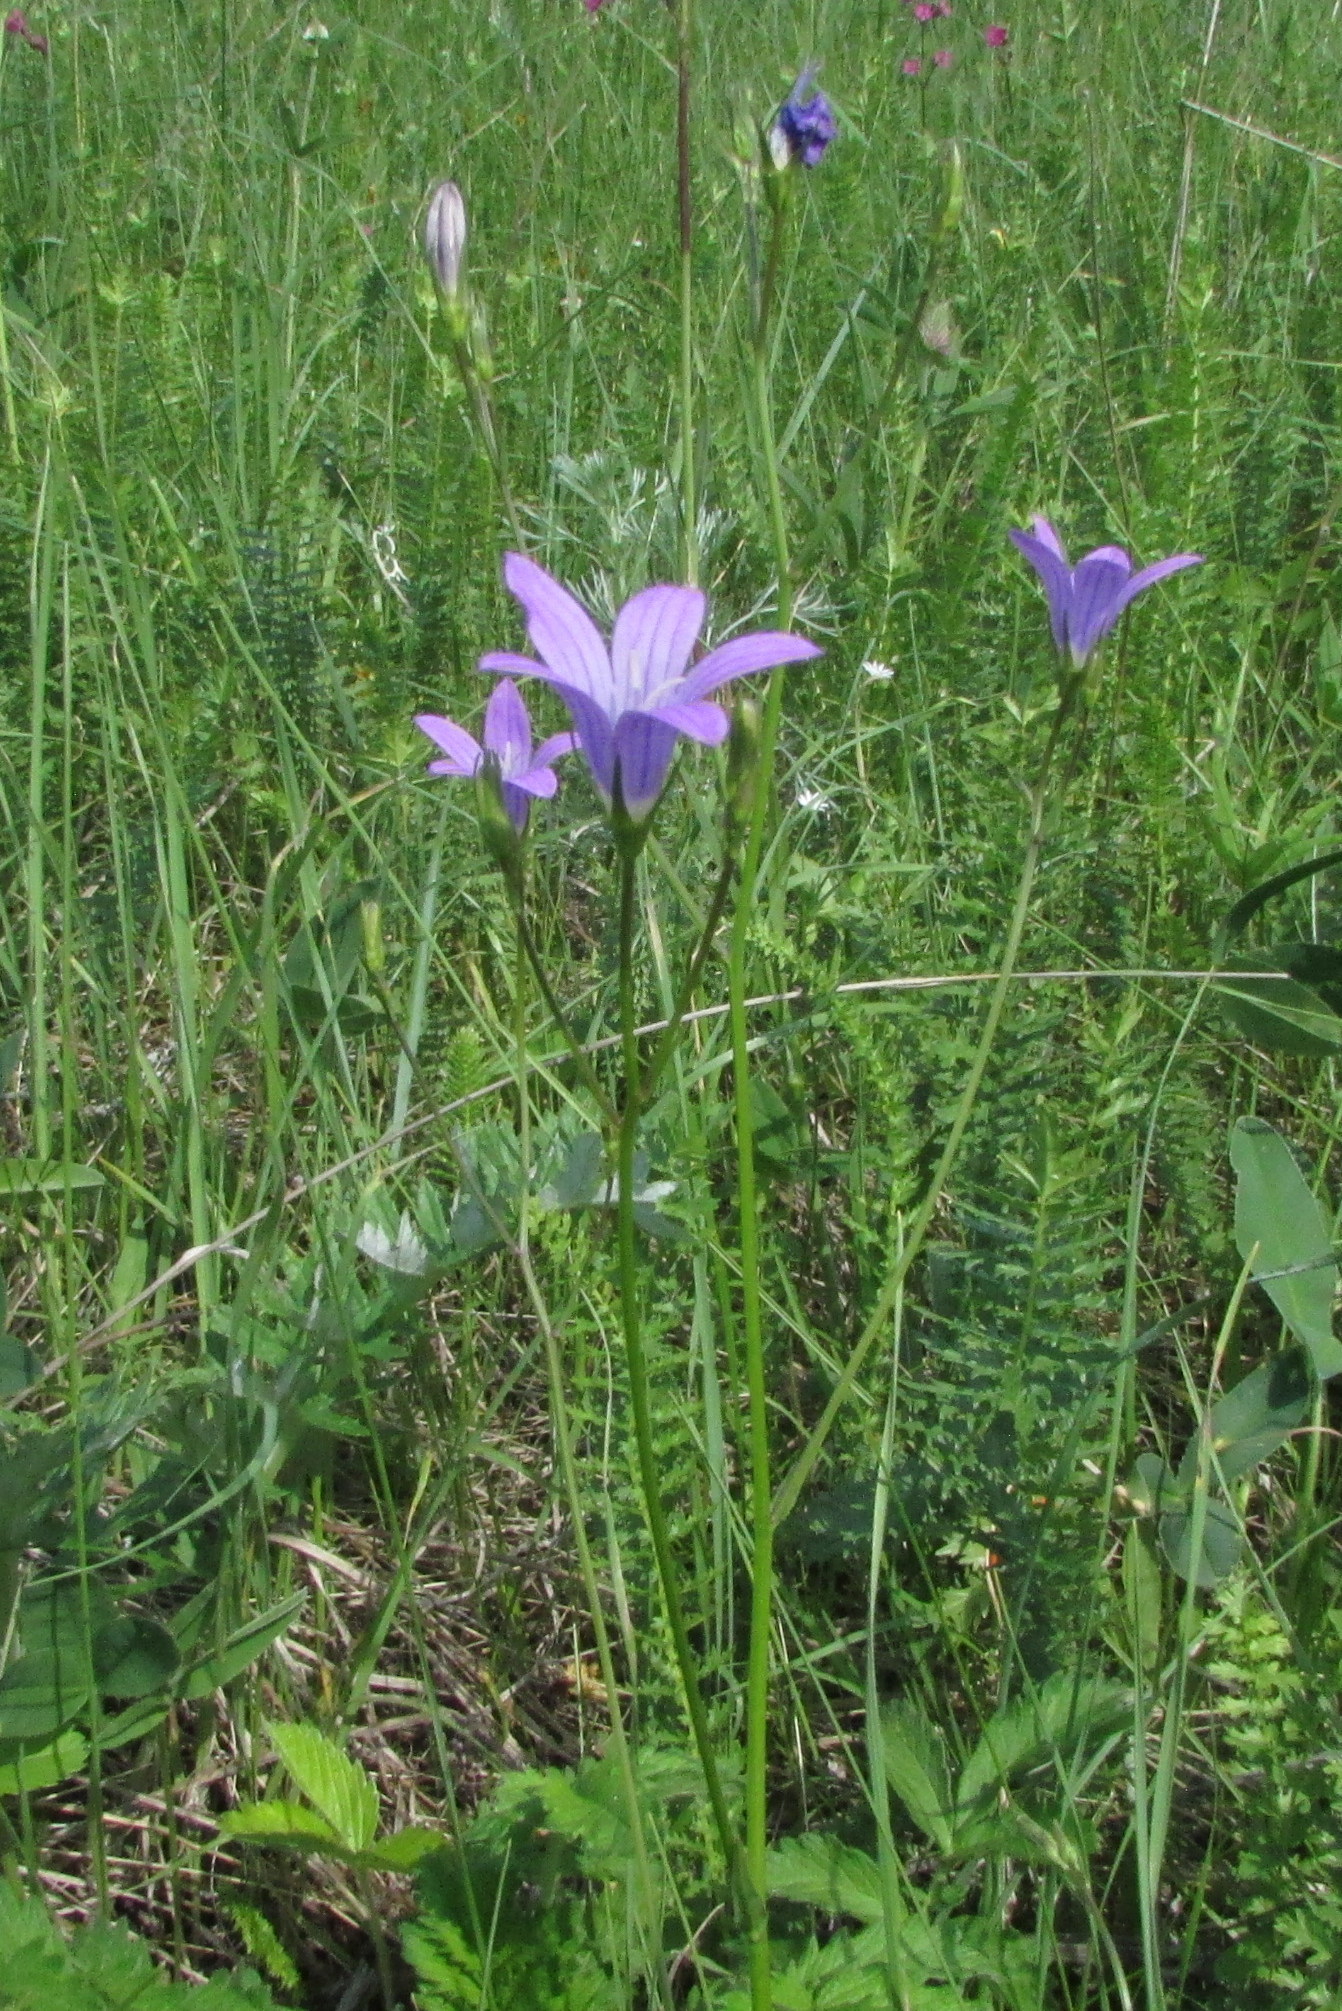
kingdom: Plantae
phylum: Tracheophyta
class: Magnoliopsida
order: Asterales
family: Campanulaceae
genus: Campanula
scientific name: Campanula patula
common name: Spreading bellflower
